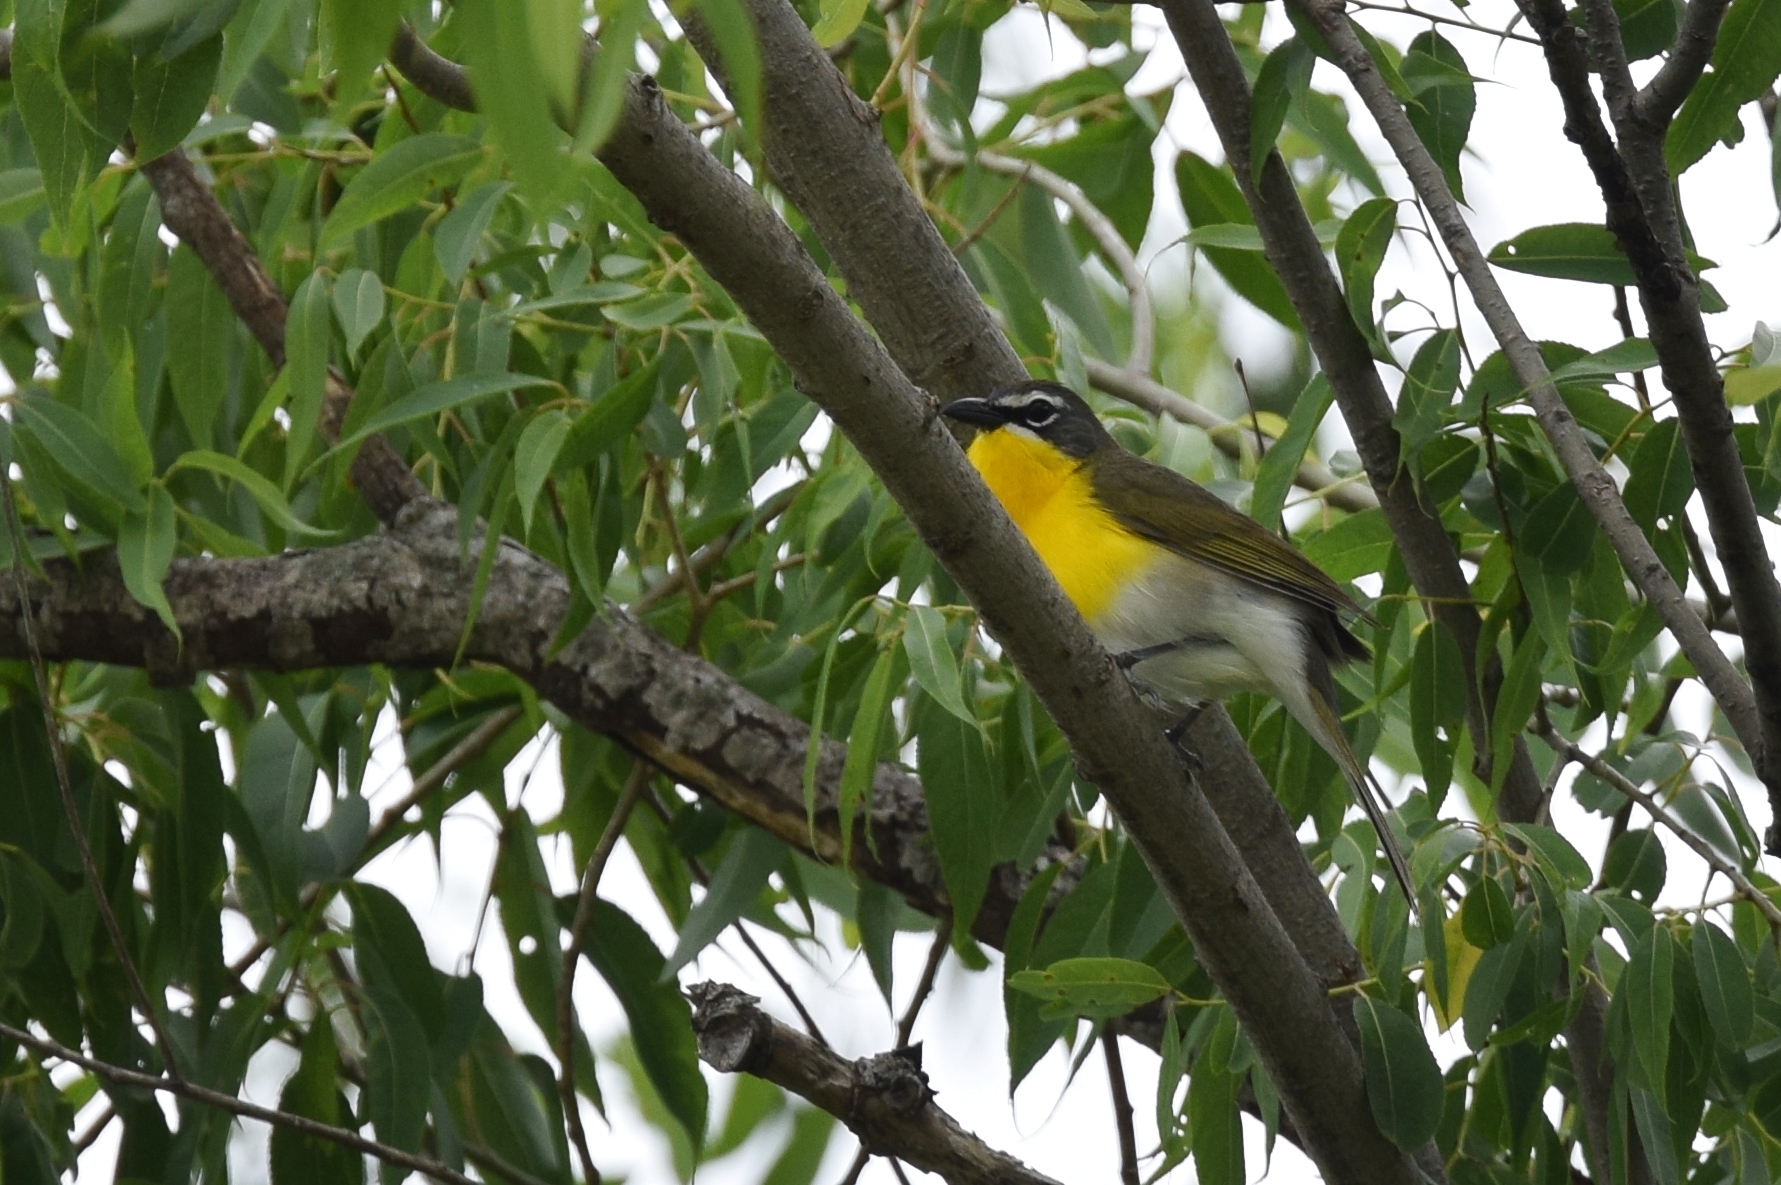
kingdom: Animalia
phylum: Chordata
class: Aves
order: Passeriformes
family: Parulidae
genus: Icteria
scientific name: Icteria virens
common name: Yellow-breasted chat
